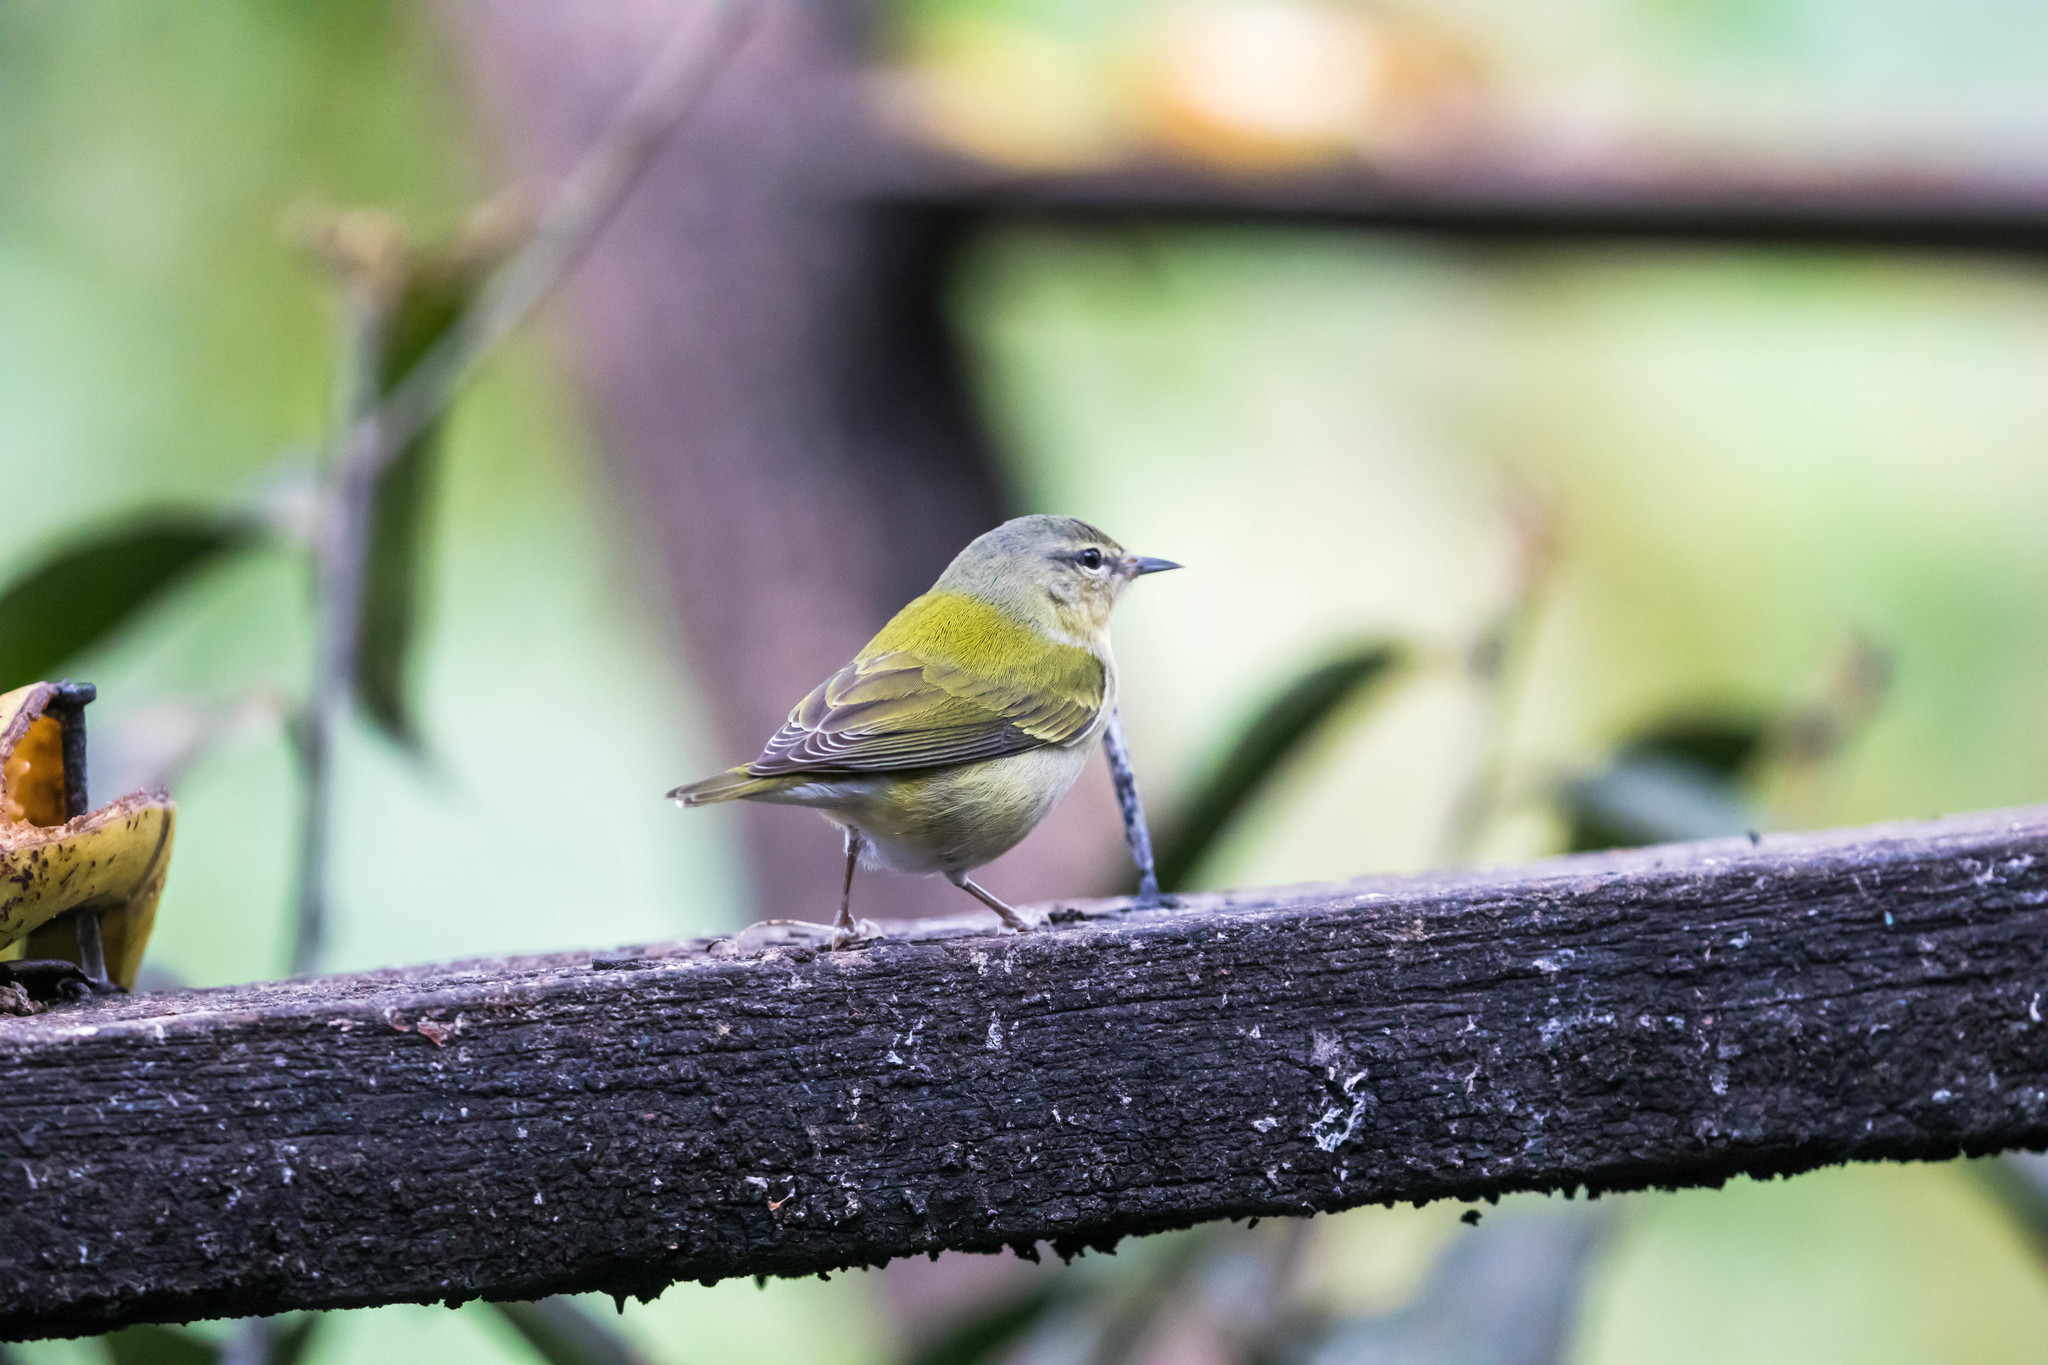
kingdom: Animalia
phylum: Chordata
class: Aves
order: Passeriformes
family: Parulidae
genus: Leiothlypis
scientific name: Leiothlypis peregrina
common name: Tennessee warbler
